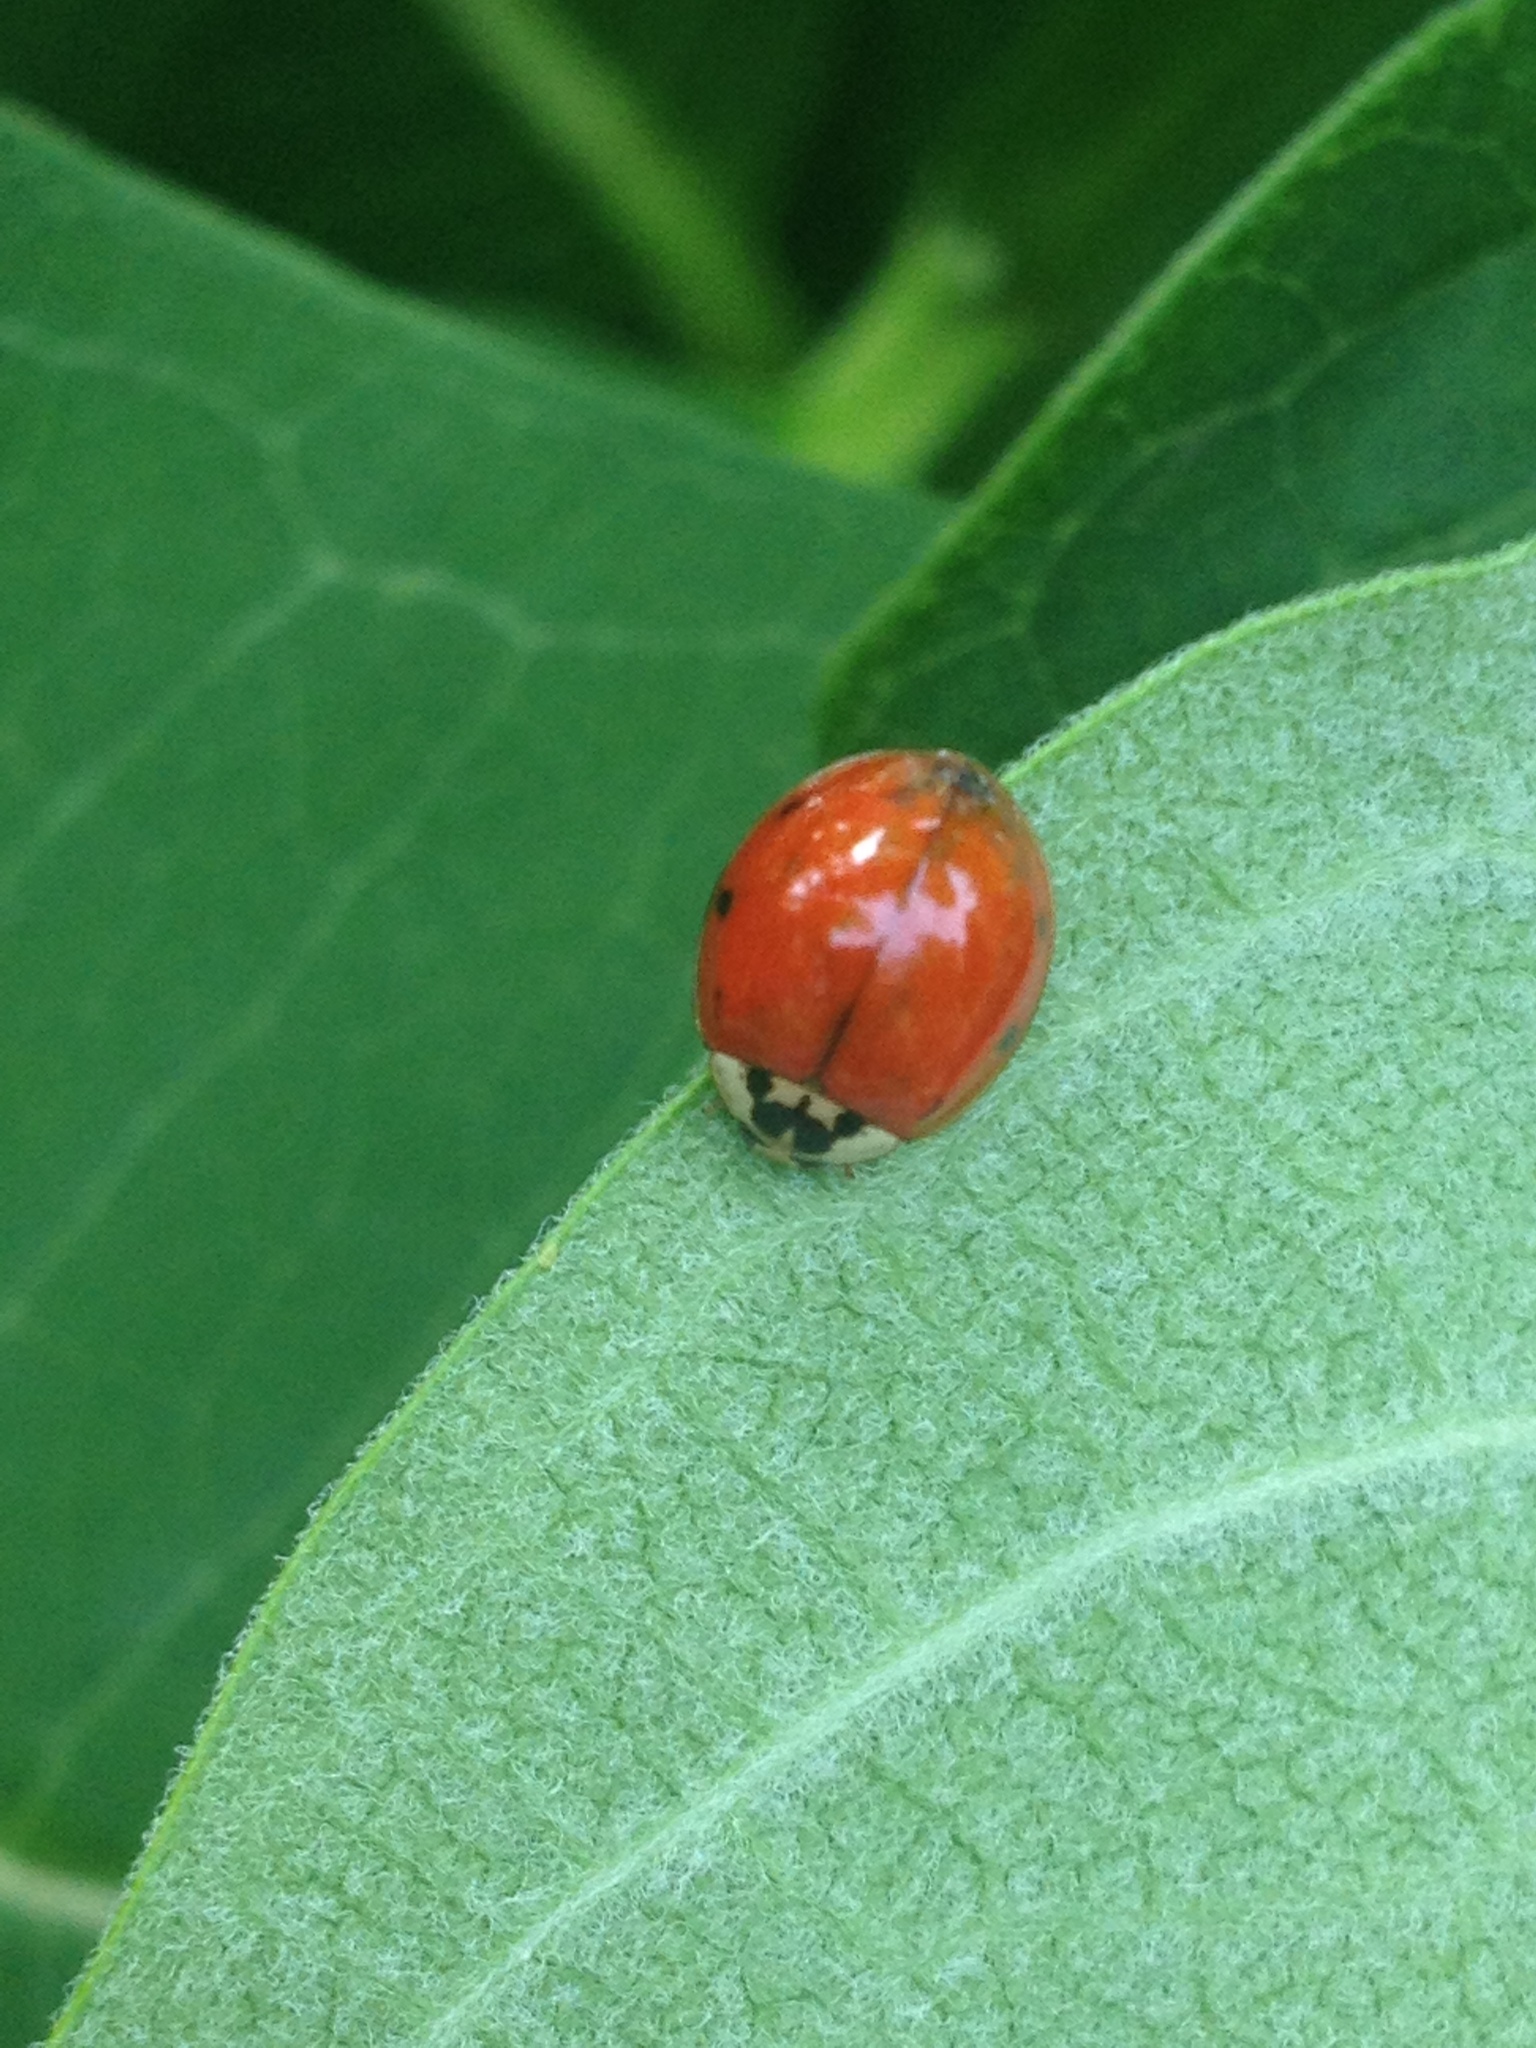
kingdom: Animalia
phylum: Arthropoda
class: Insecta
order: Coleoptera
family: Coccinellidae
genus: Harmonia
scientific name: Harmonia axyridis
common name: Harlequin ladybird
